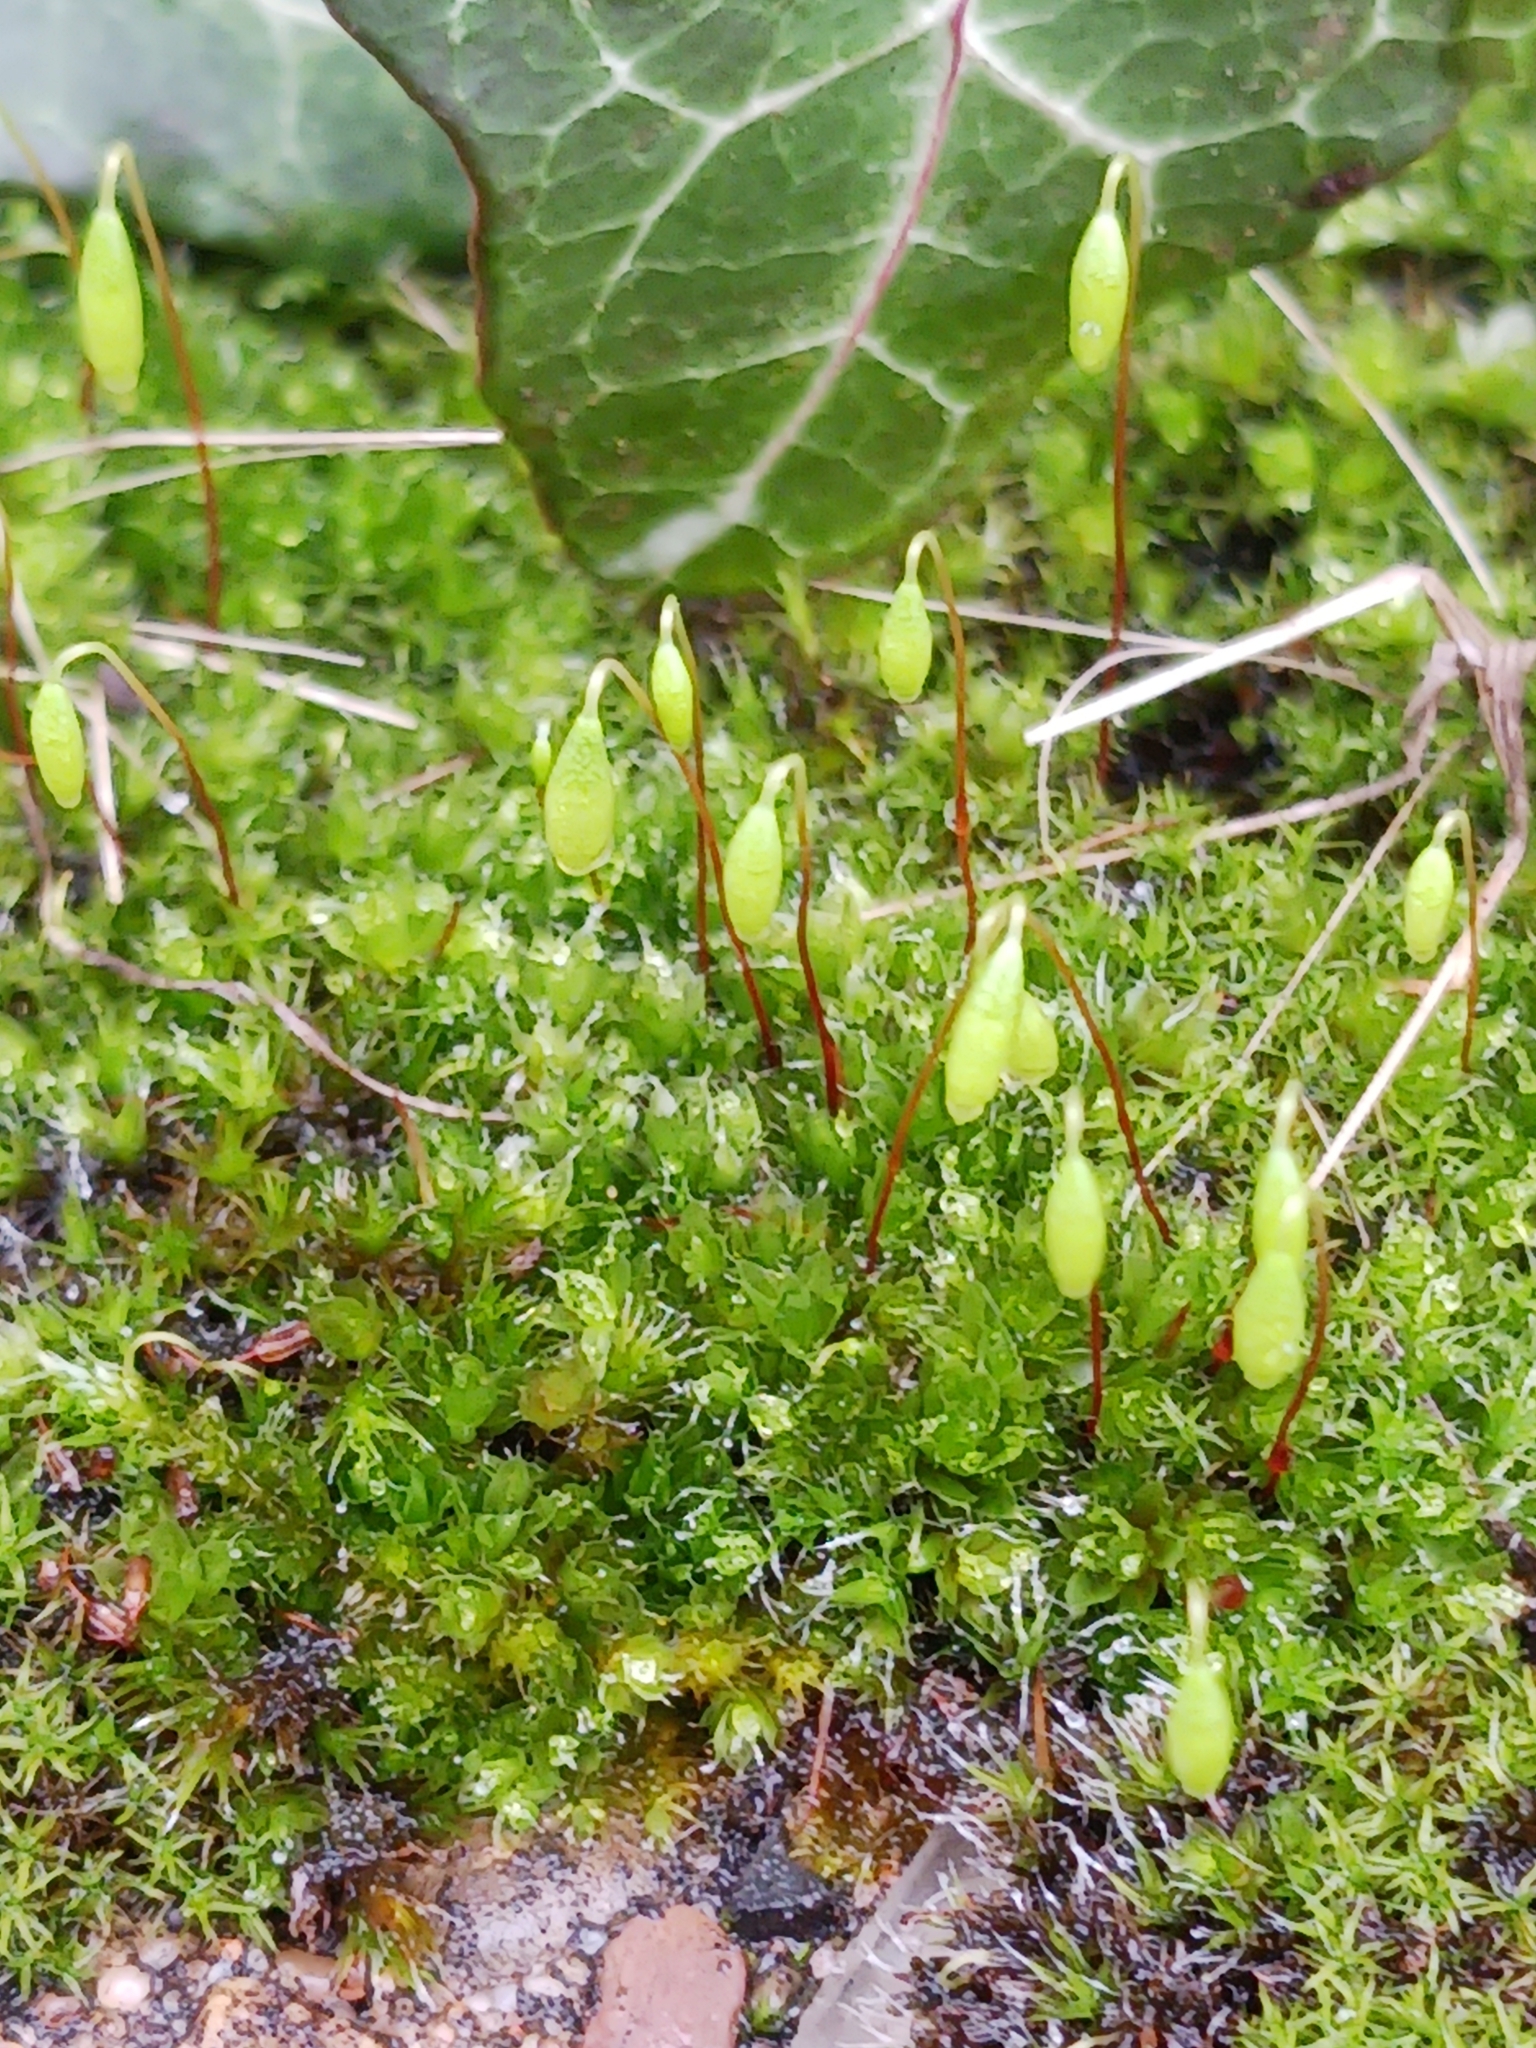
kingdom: Plantae
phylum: Bryophyta
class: Bryopsida
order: Bryales
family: Bryaceae
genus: Rosulabryum
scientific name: Rosulabryum capillare
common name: Capillary thread-moss
